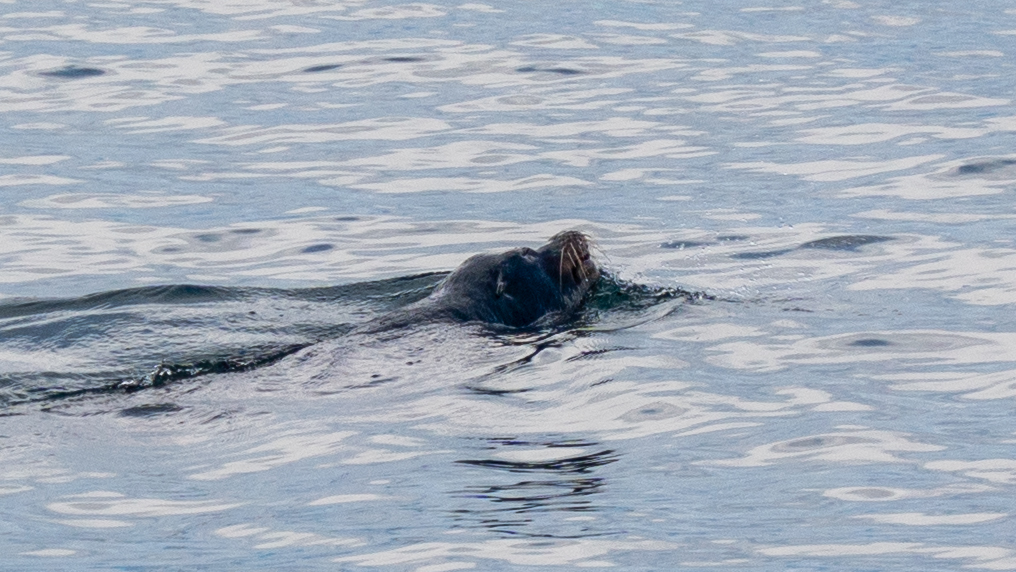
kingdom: Animalia
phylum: Chordata
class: Mammalia
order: Carnivora
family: Otariidae
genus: Zalophus
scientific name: Zalophus californianus
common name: California sea lion
